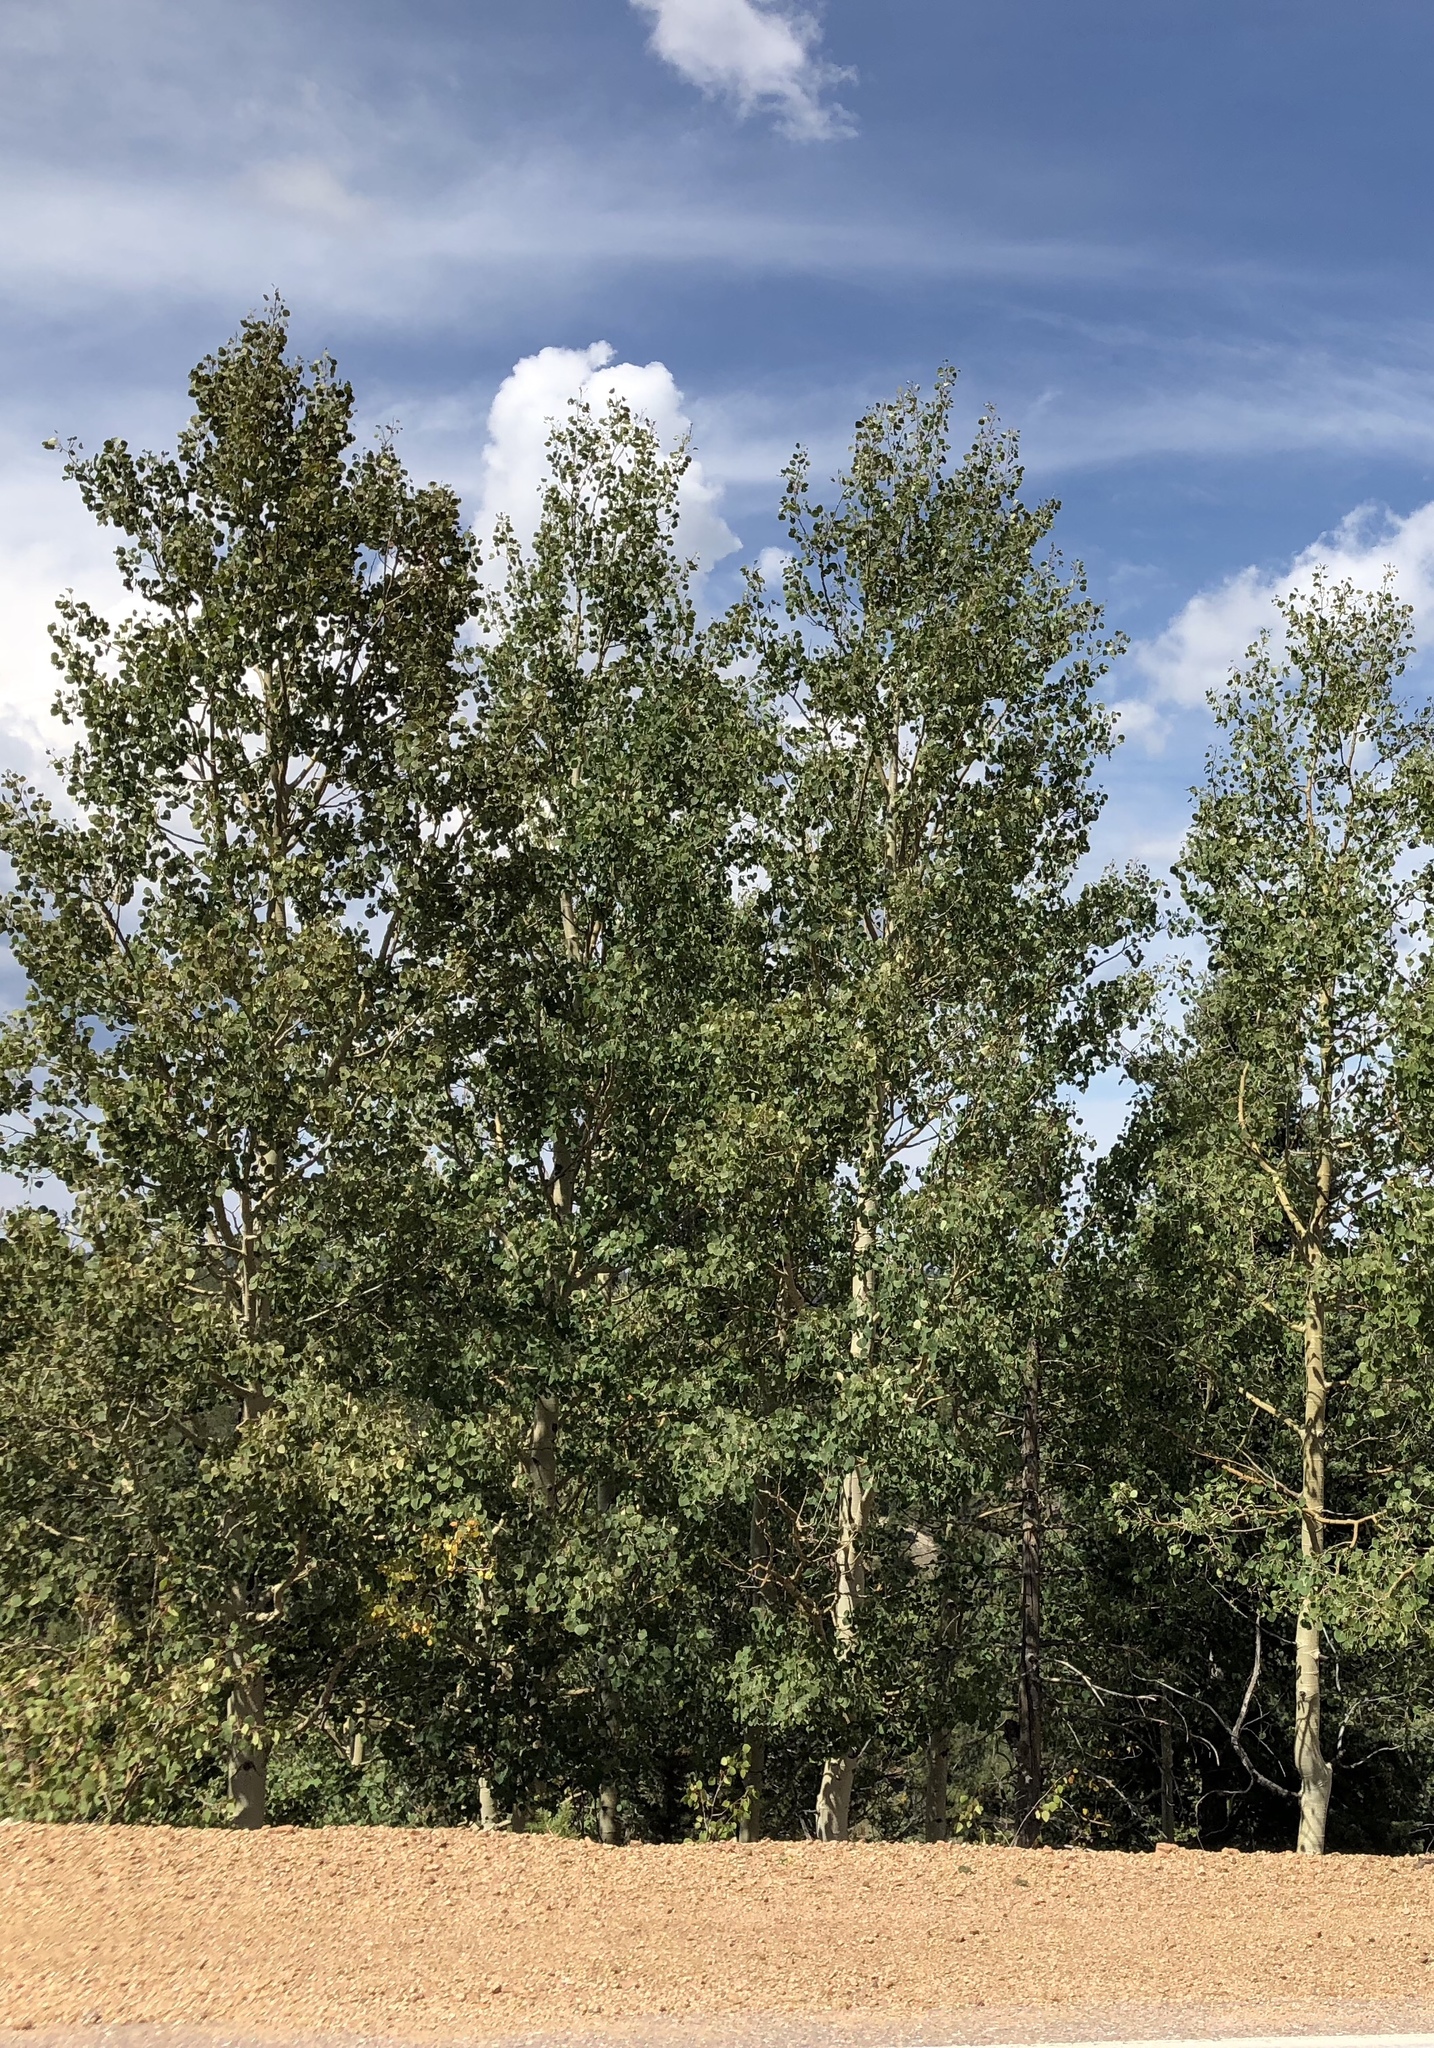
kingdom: Plantae
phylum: Tracheophyta
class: Magnoliopsida
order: Malpighiales
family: Salicaceae
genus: Populus
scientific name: Populus tremuloides
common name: Quaking aspen
